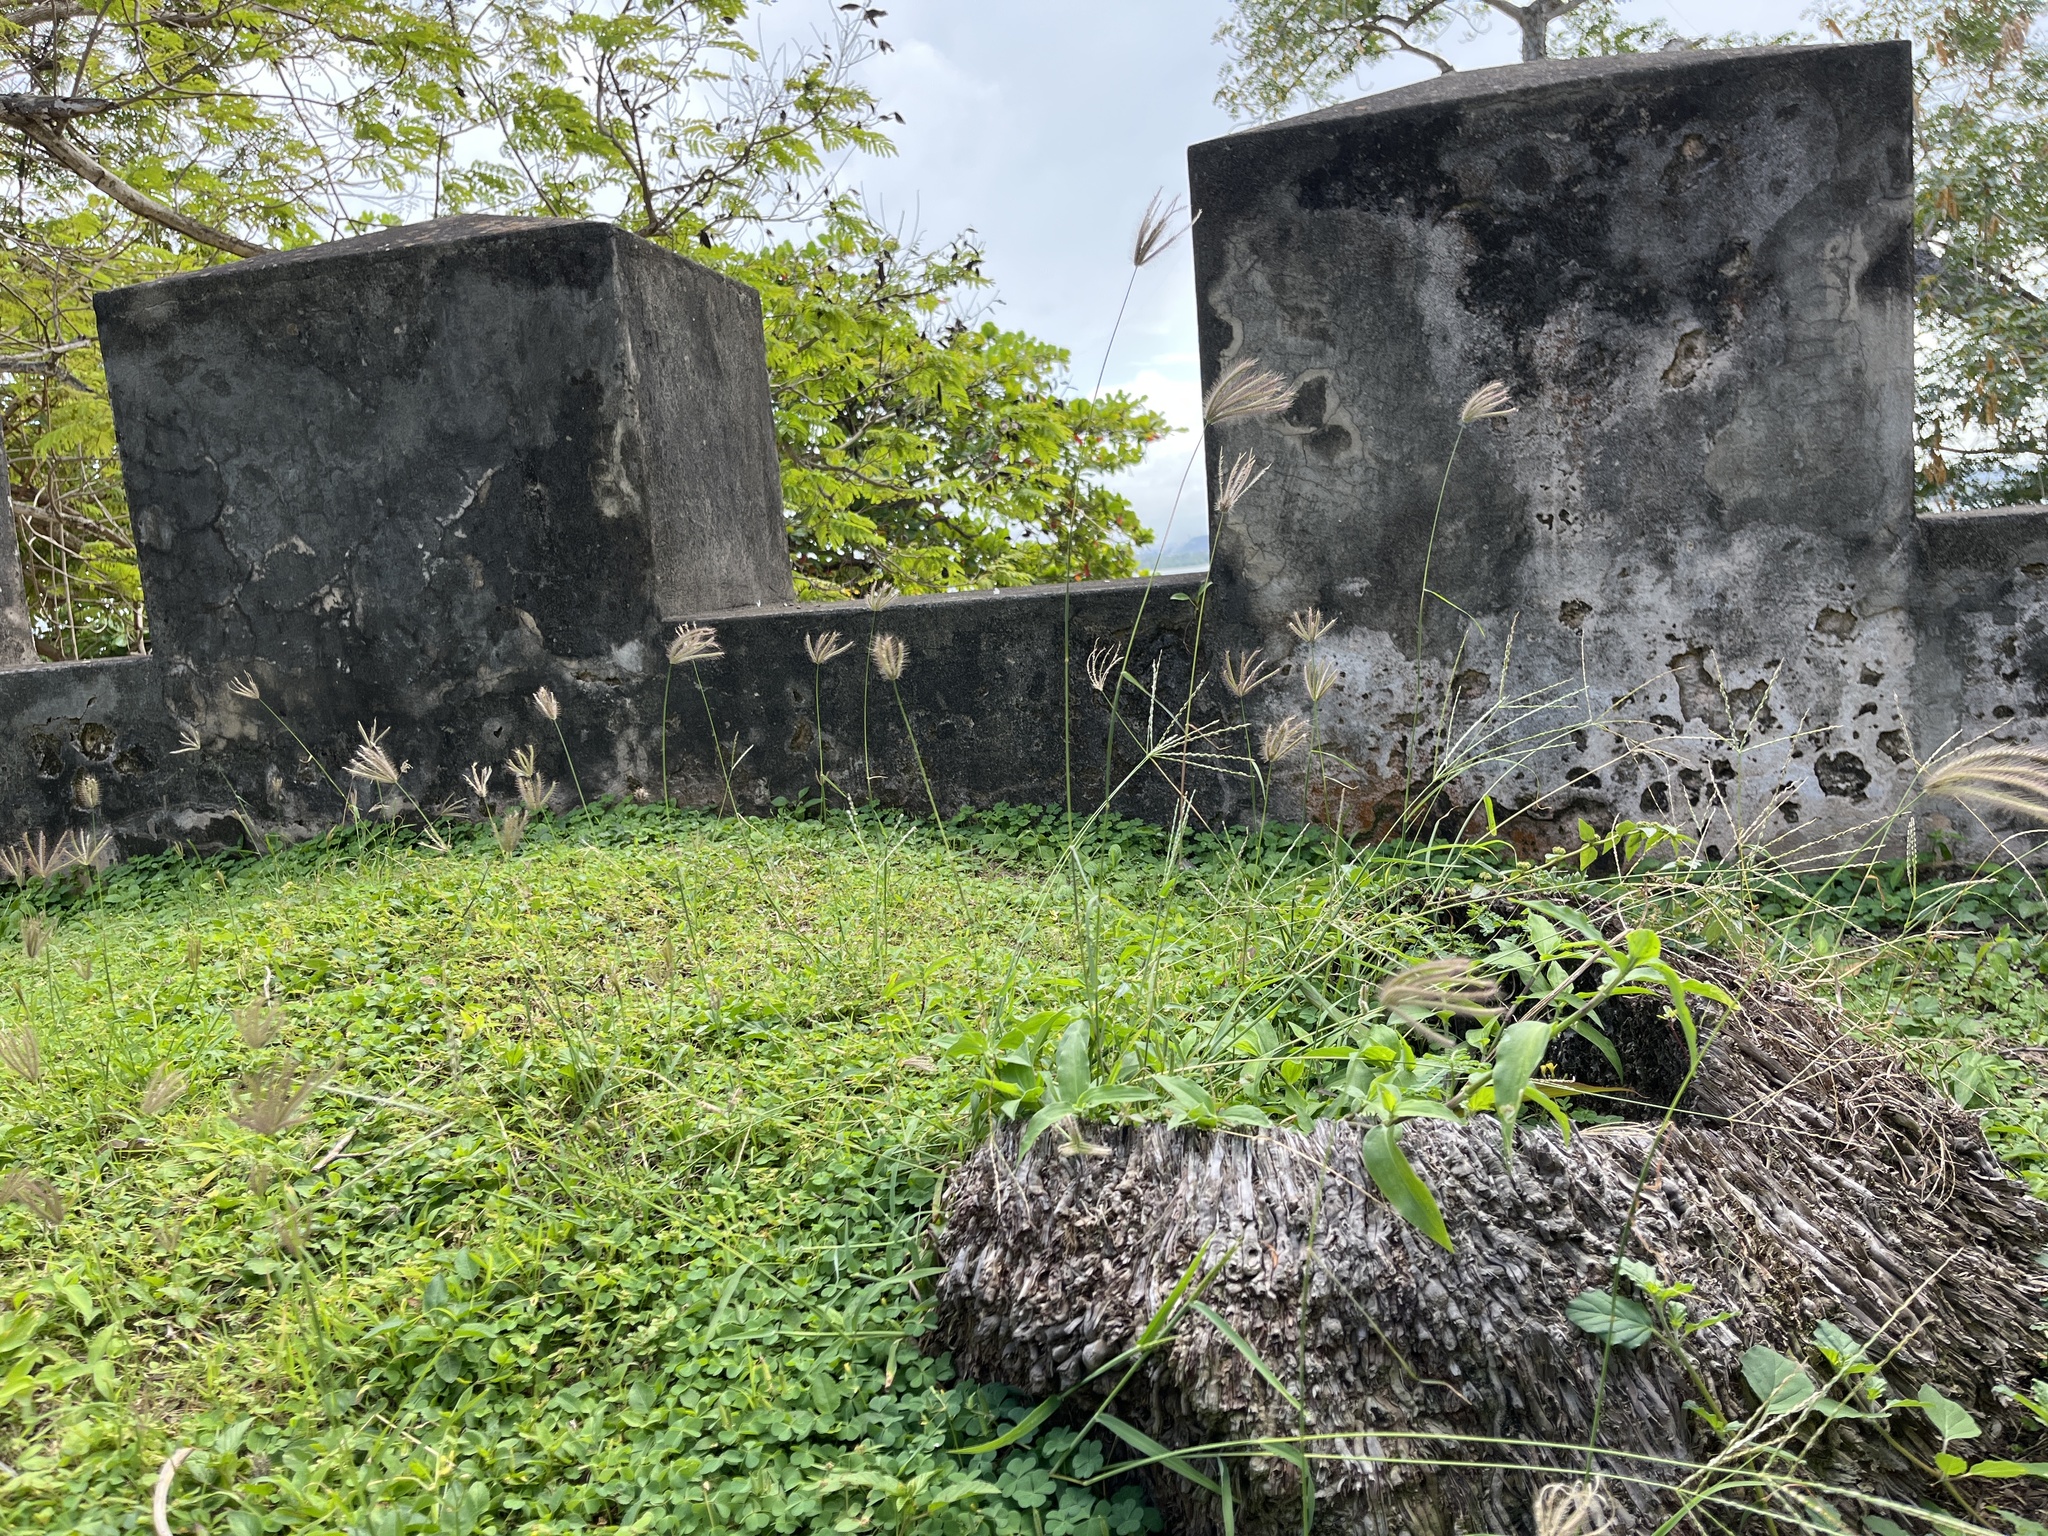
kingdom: Plantae
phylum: Tracheophyta
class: Liliopsida
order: Poales
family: Poaceae
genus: Chloris
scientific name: Chloris barbata
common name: Swollen fingergrass
